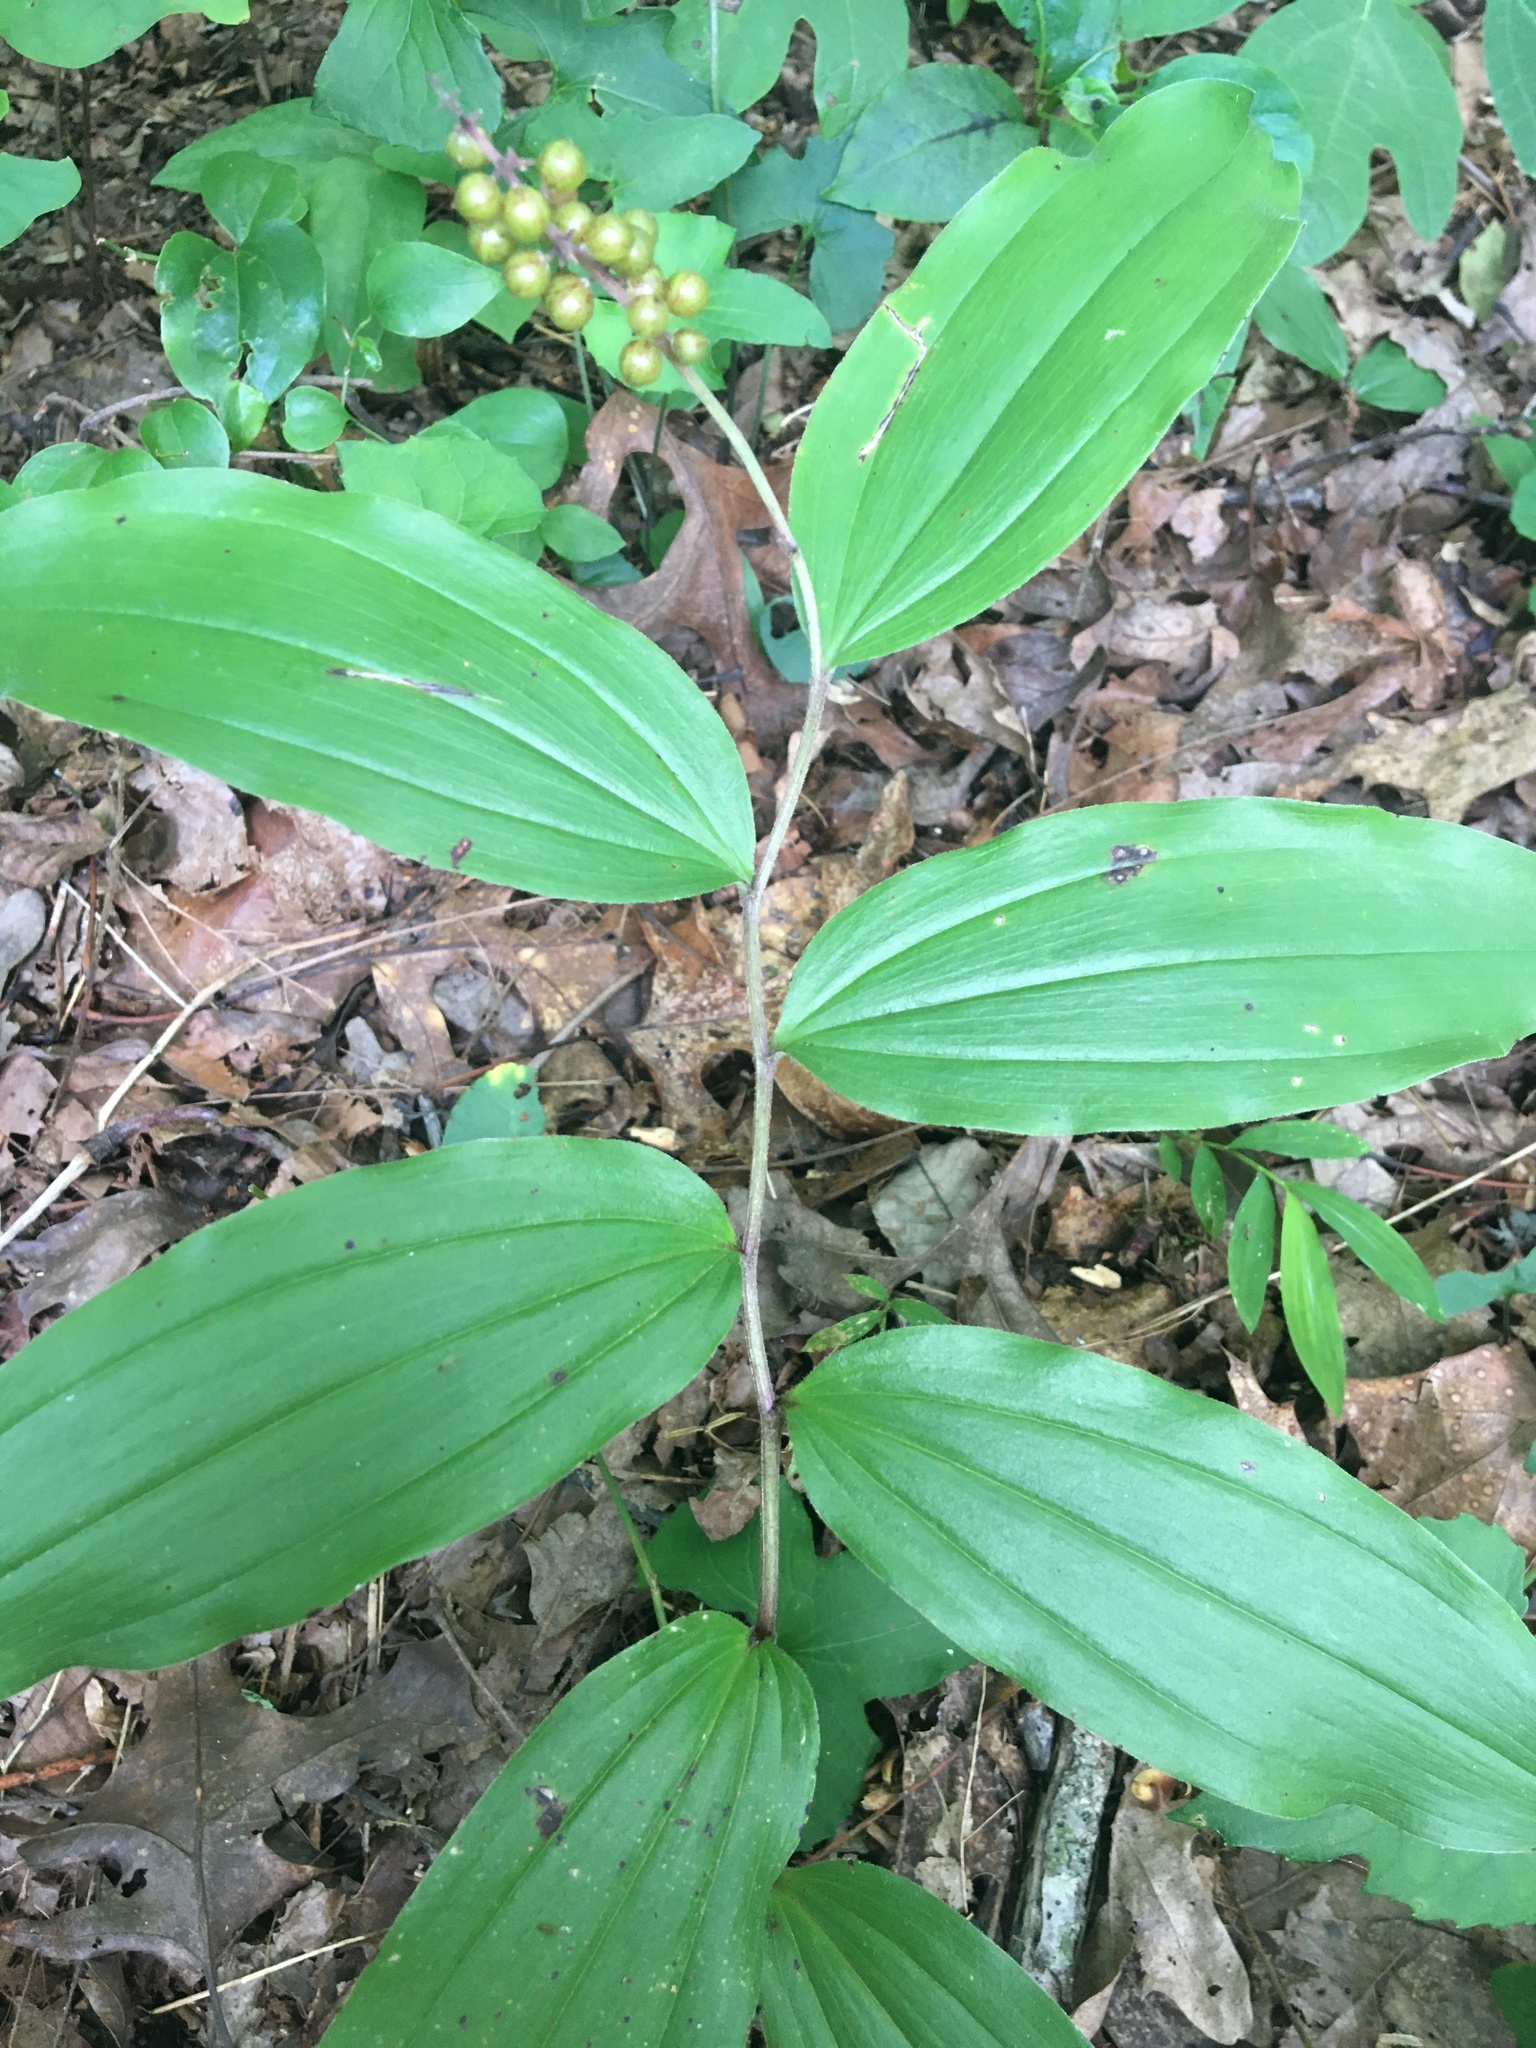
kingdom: Plantae
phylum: Tracheophyta
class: Liliopsida
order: Asparagales
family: Asparagaceae
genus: Maianthemum
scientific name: Maianthemum racemosum
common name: False spikenard
